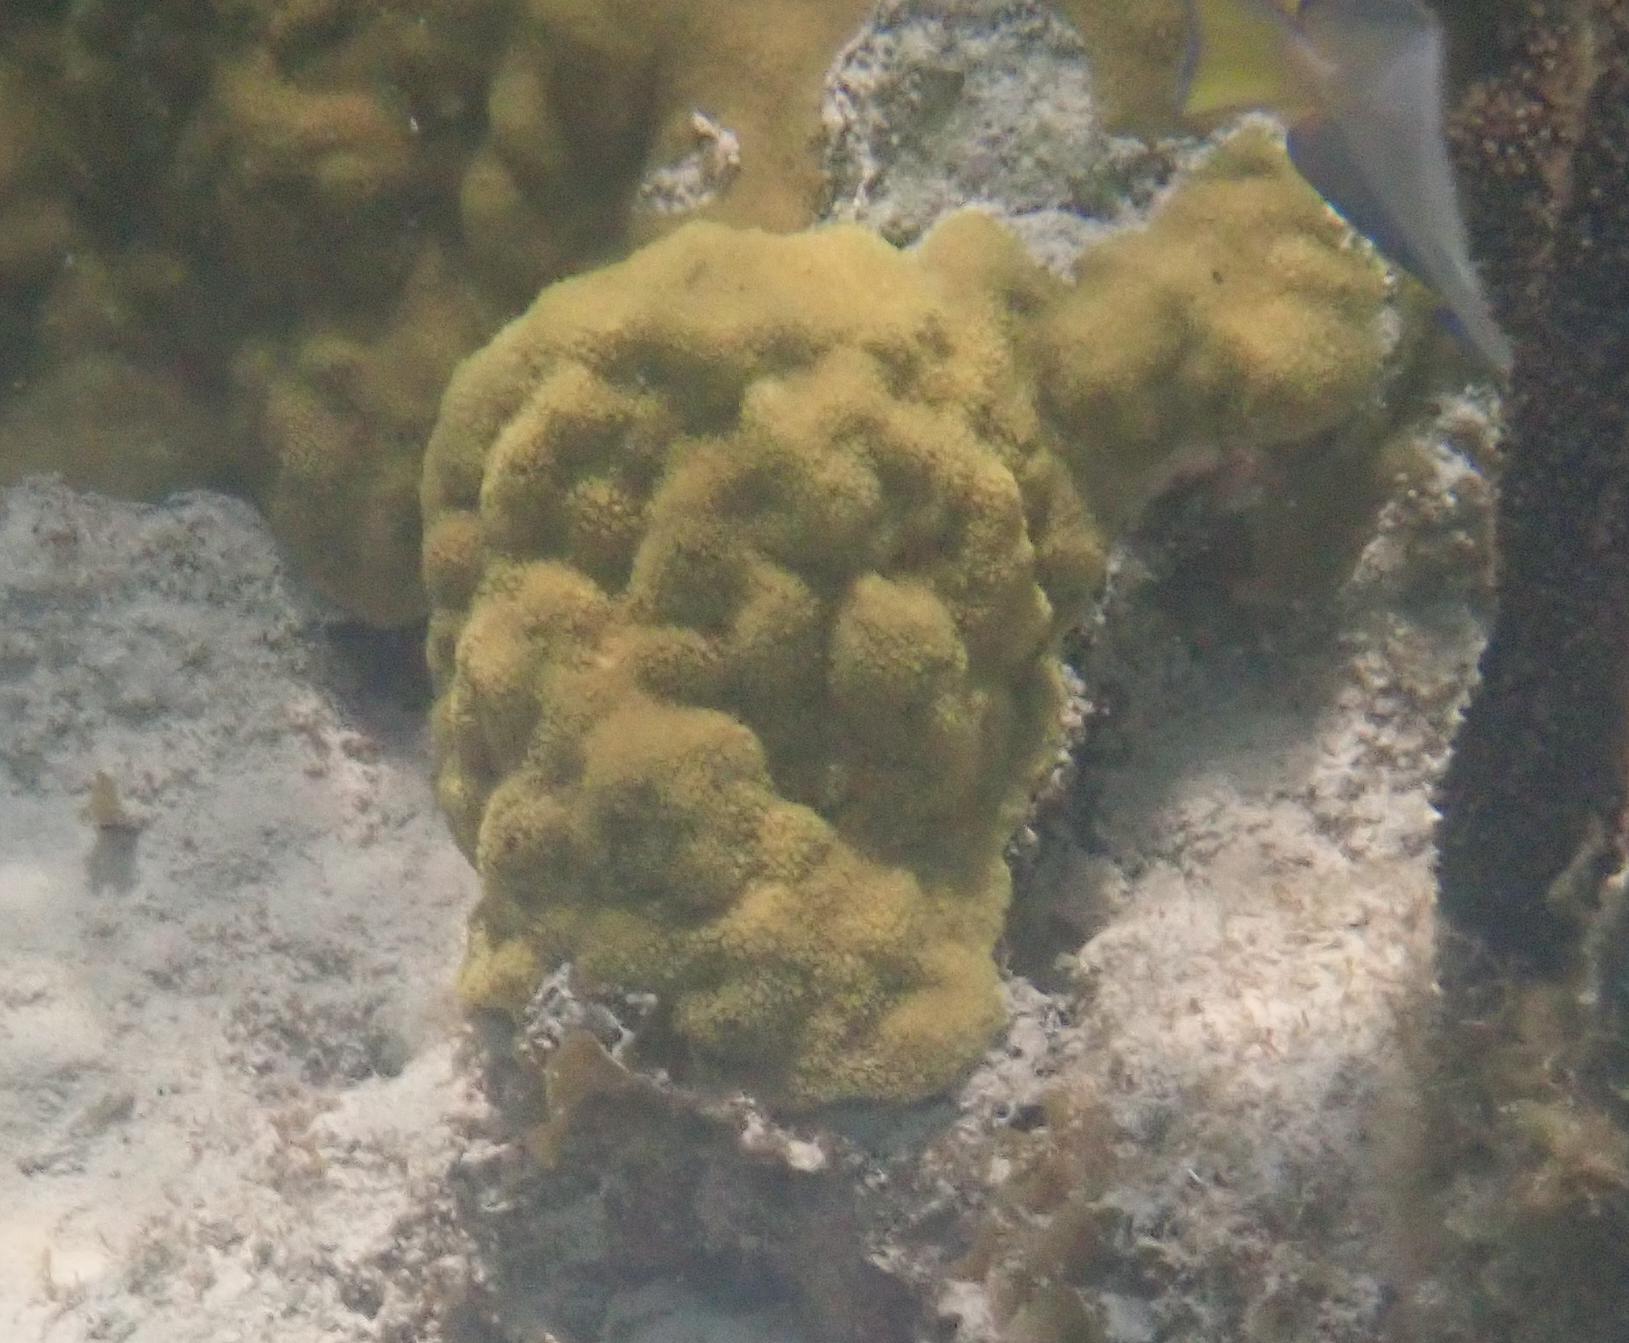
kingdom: Animalia
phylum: Cnidaria
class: Anthozoa
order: Scleractinia
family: Poritidae
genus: Porites
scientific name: Porites astreoides
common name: Mustard hill coral
